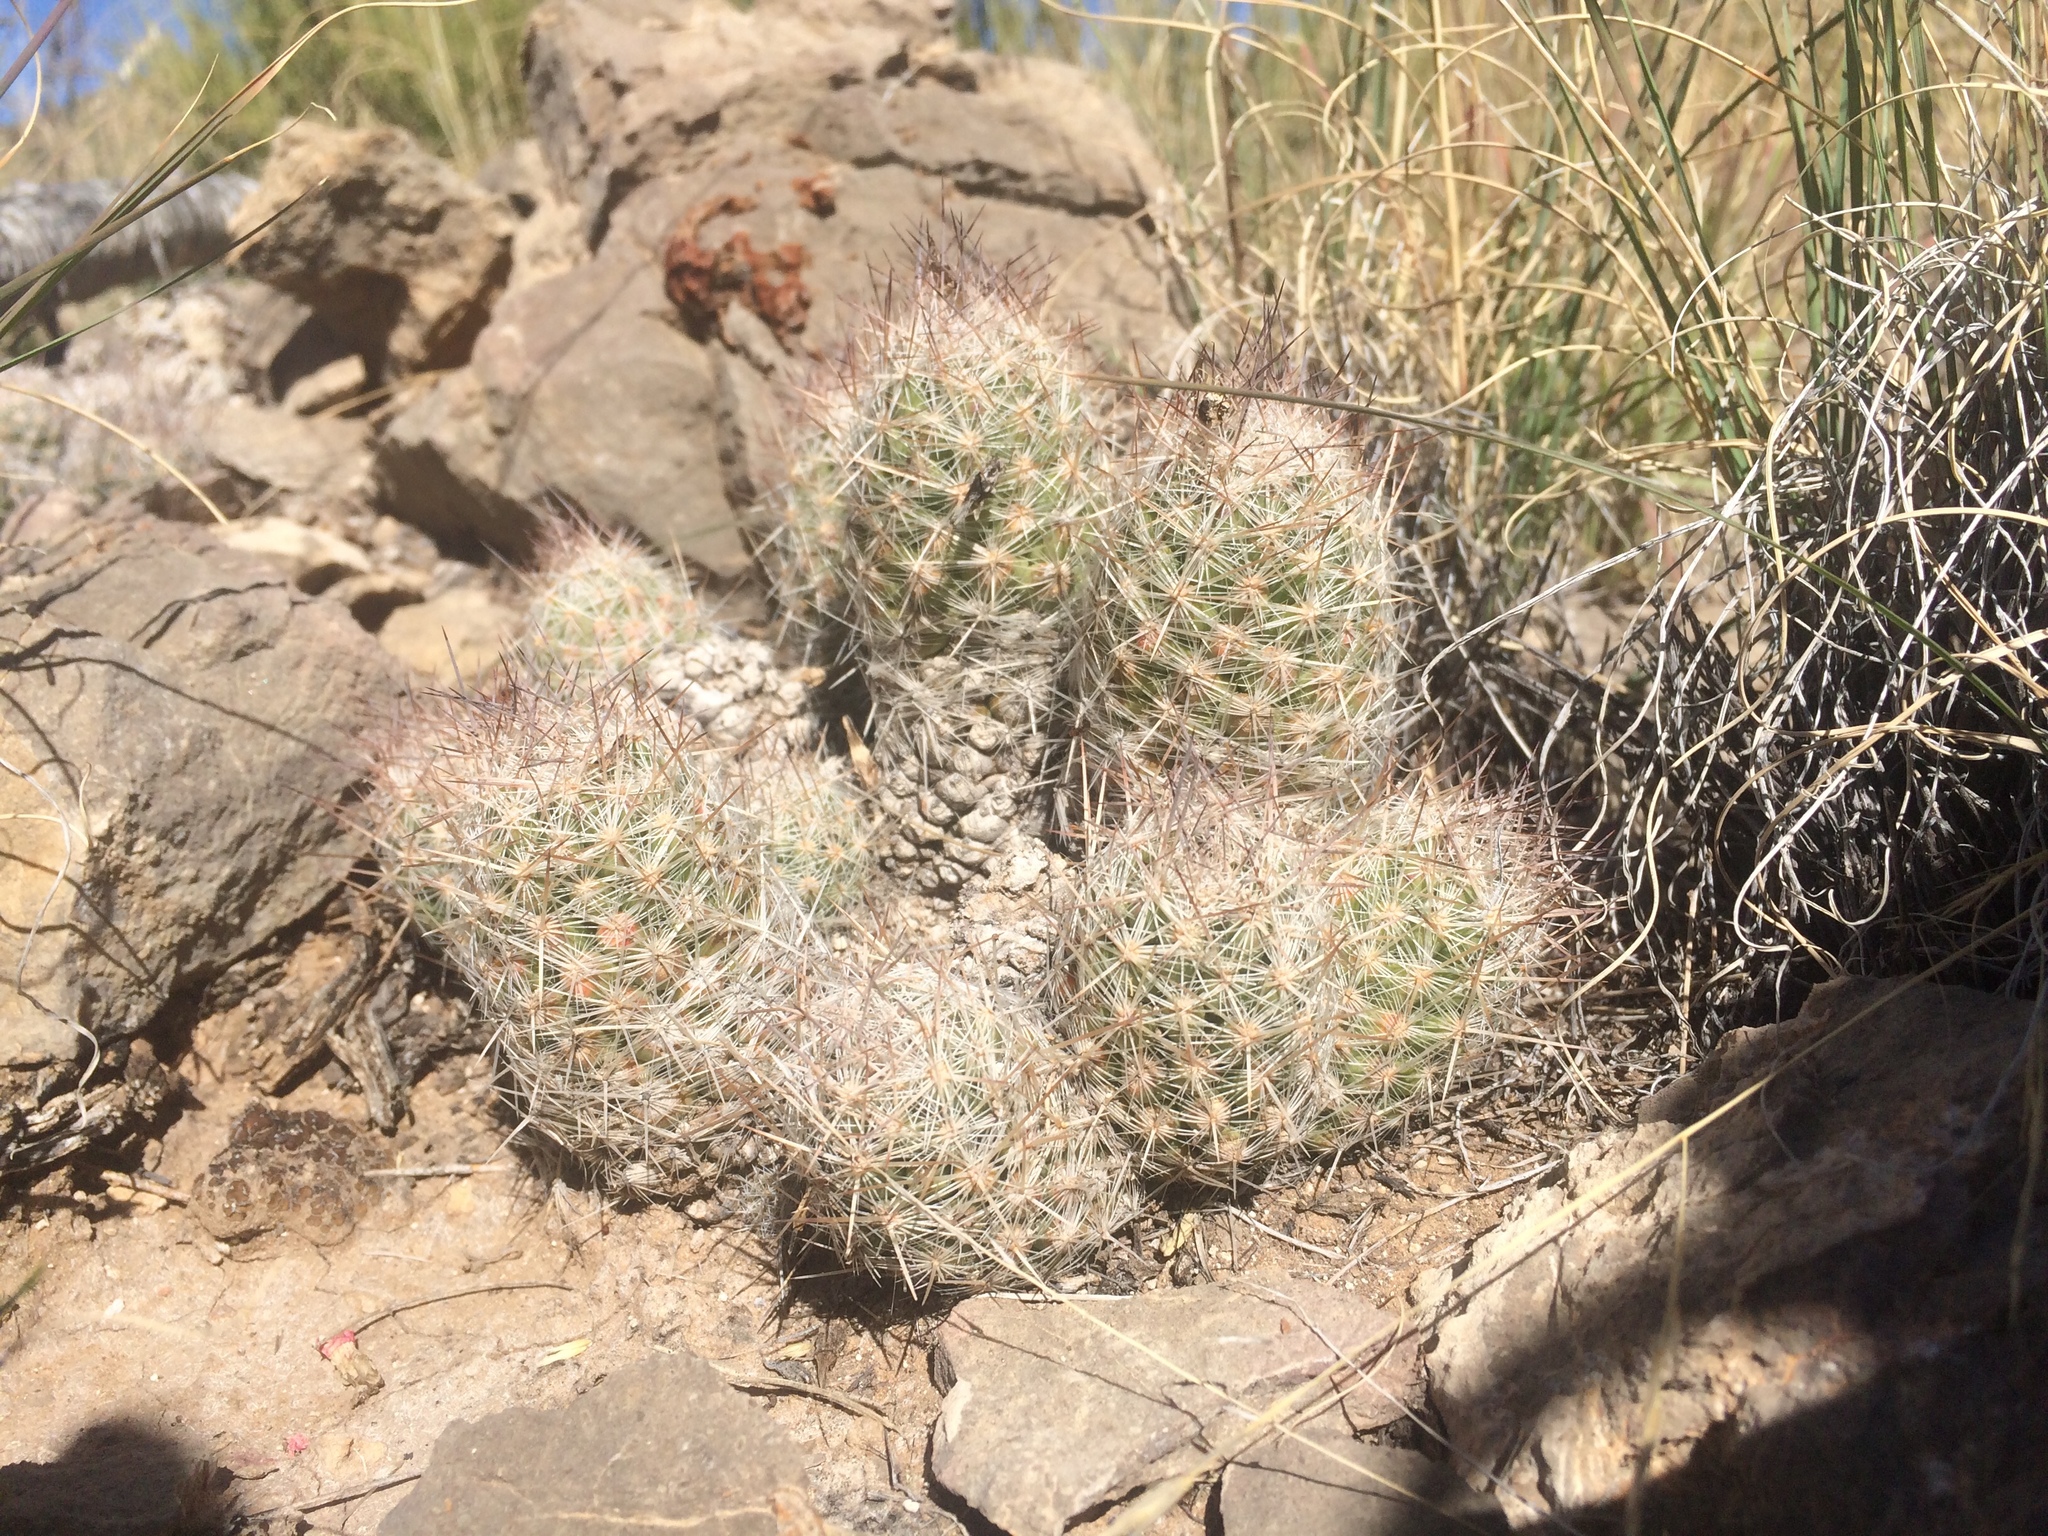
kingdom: Plantae
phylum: Tracheophyta
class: Magnoliopsida
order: Caryophyllales
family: Cactaceae
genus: Pelecyphora
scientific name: Pelecyphora tuberculosa
